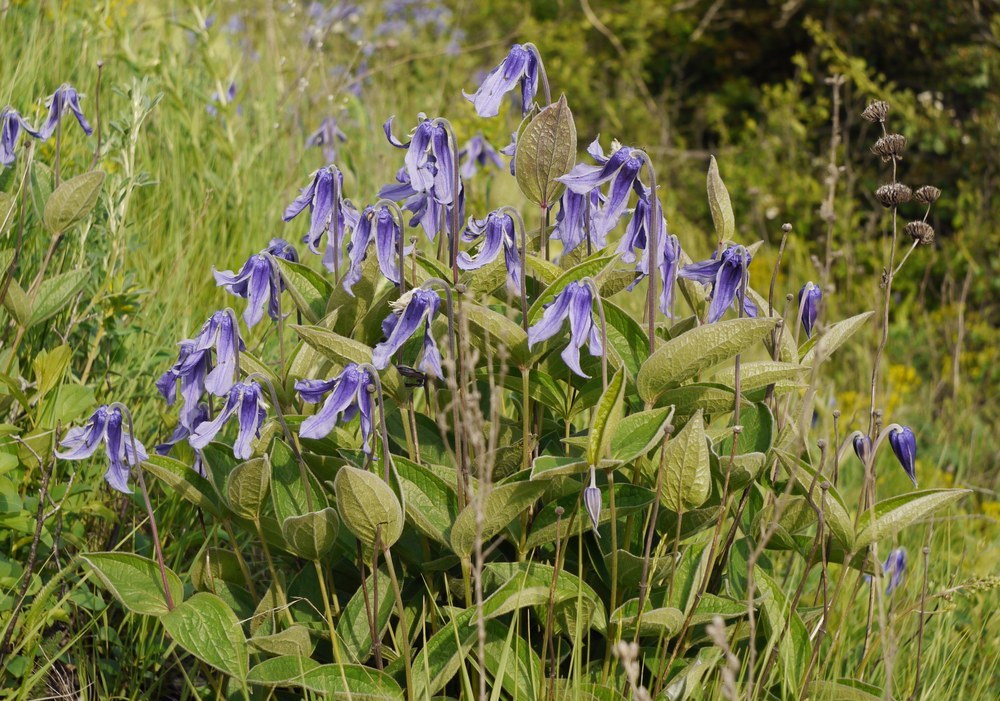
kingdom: Plantae
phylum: Tracheophyta
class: Magnoliopsida
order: Ranunculales
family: Ranunculaceae
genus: Clematis
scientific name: Clematis integrifolia
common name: Solitary clematis
